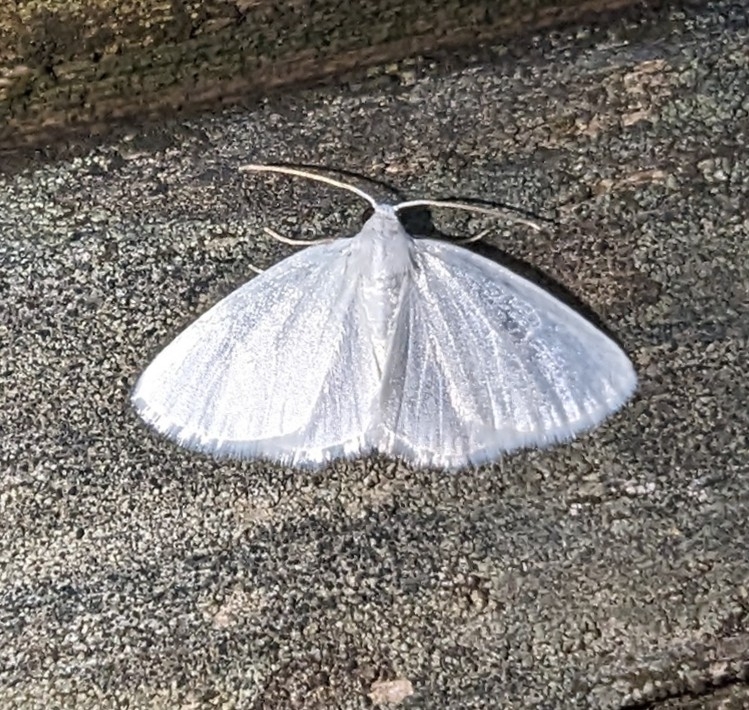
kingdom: Animalia
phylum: Arthropoda
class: Insecta
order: Lepidoptera
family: Geometridae
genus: Lomographa
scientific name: Lomographa vestaliata
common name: White spring moth
